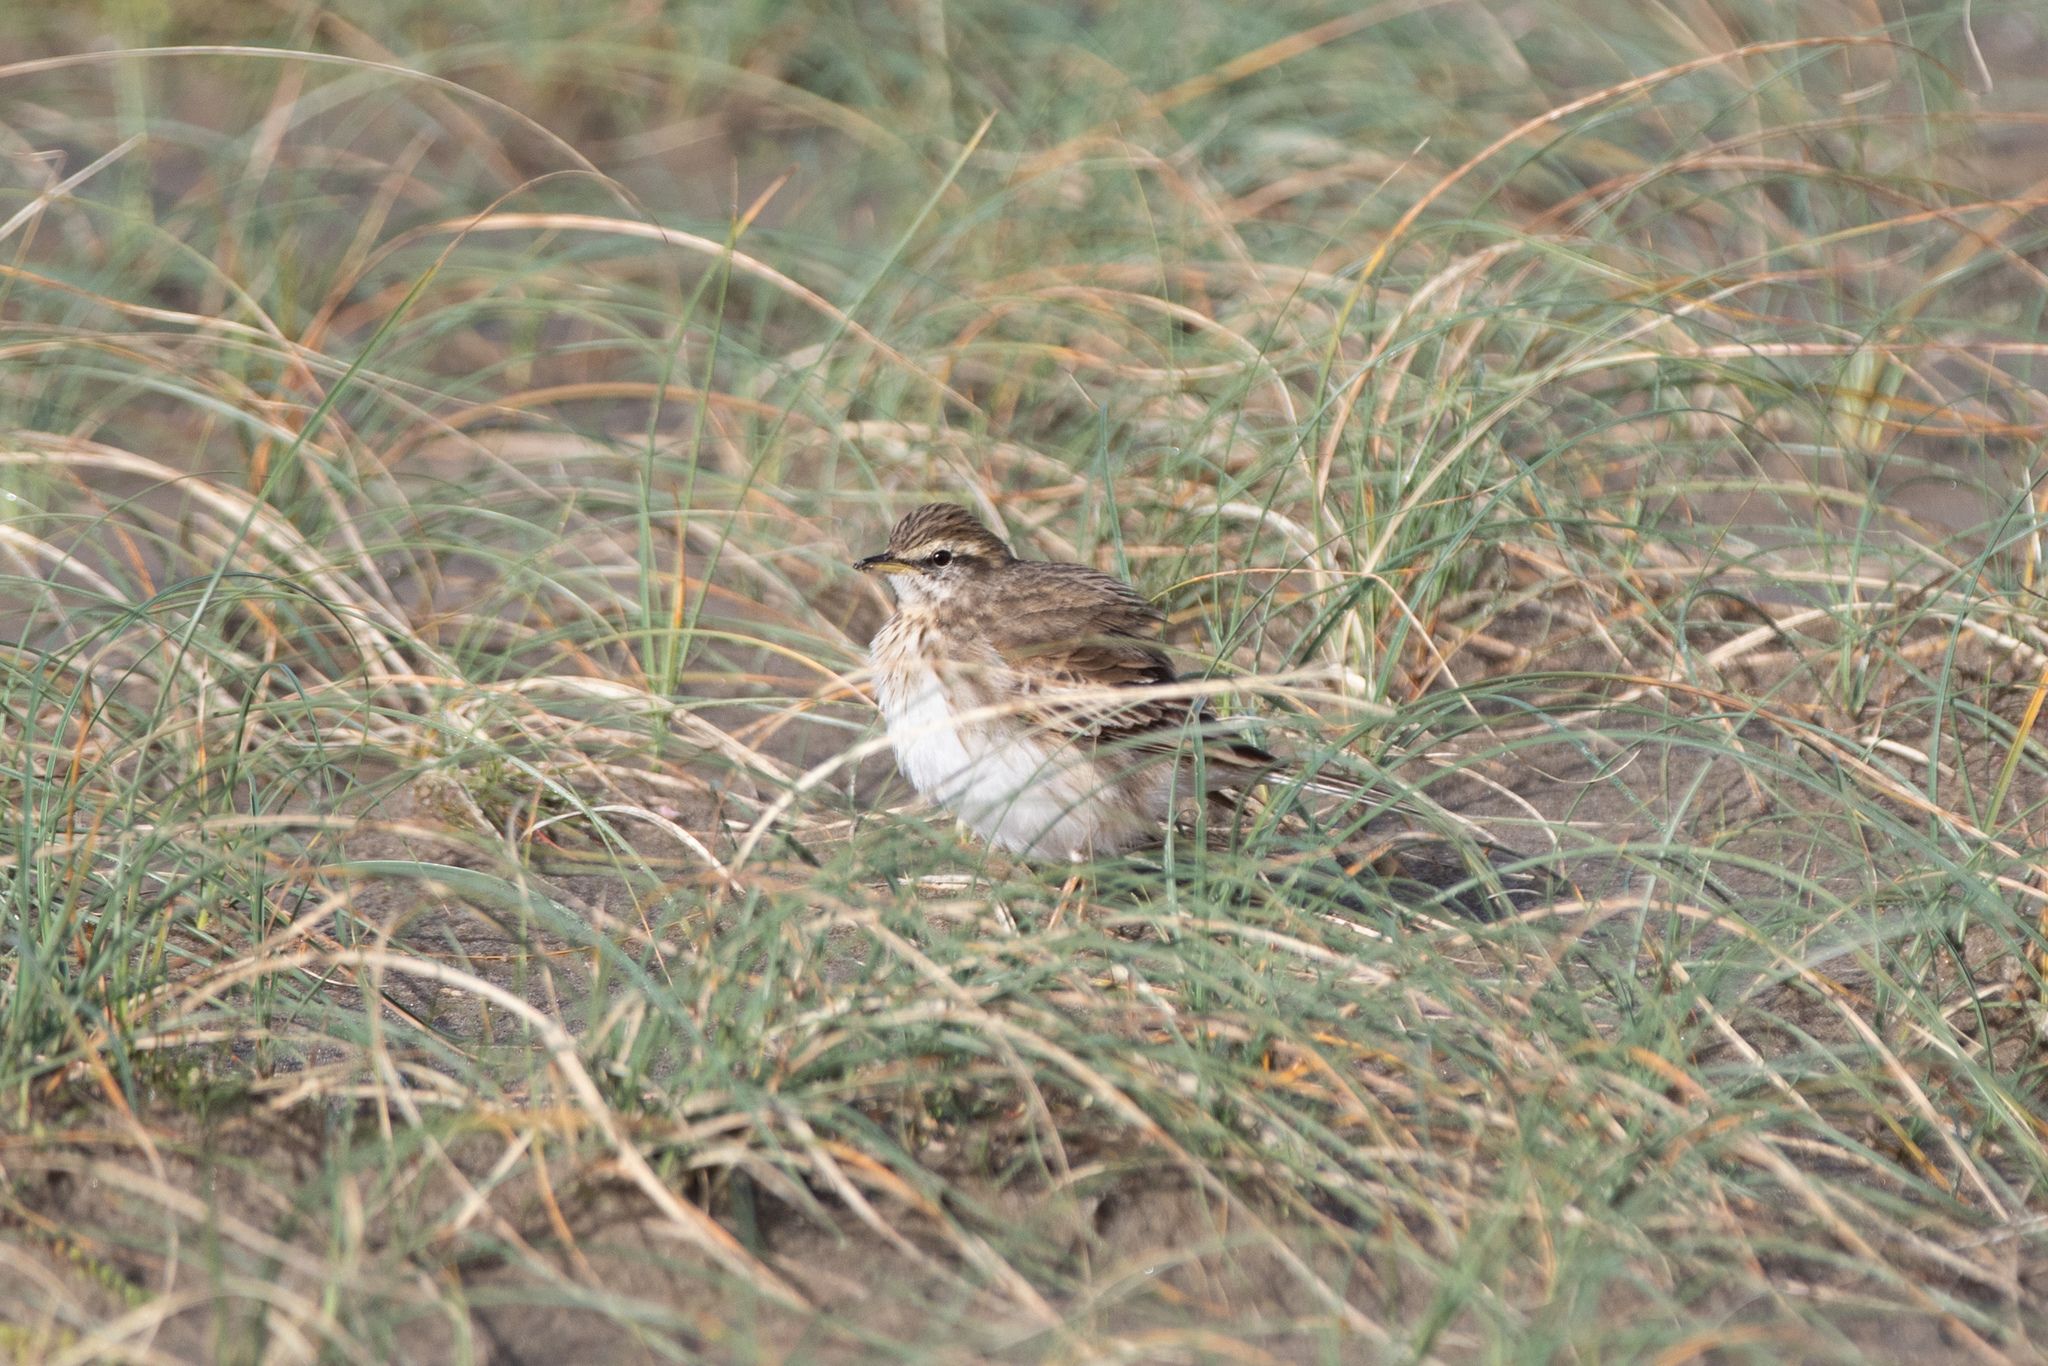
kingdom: Animalia
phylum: Chordata
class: Aves
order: Passeriformes
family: Motacillidae
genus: Anthus
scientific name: Anthus novaeseelandiae
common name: New zealand pipit
